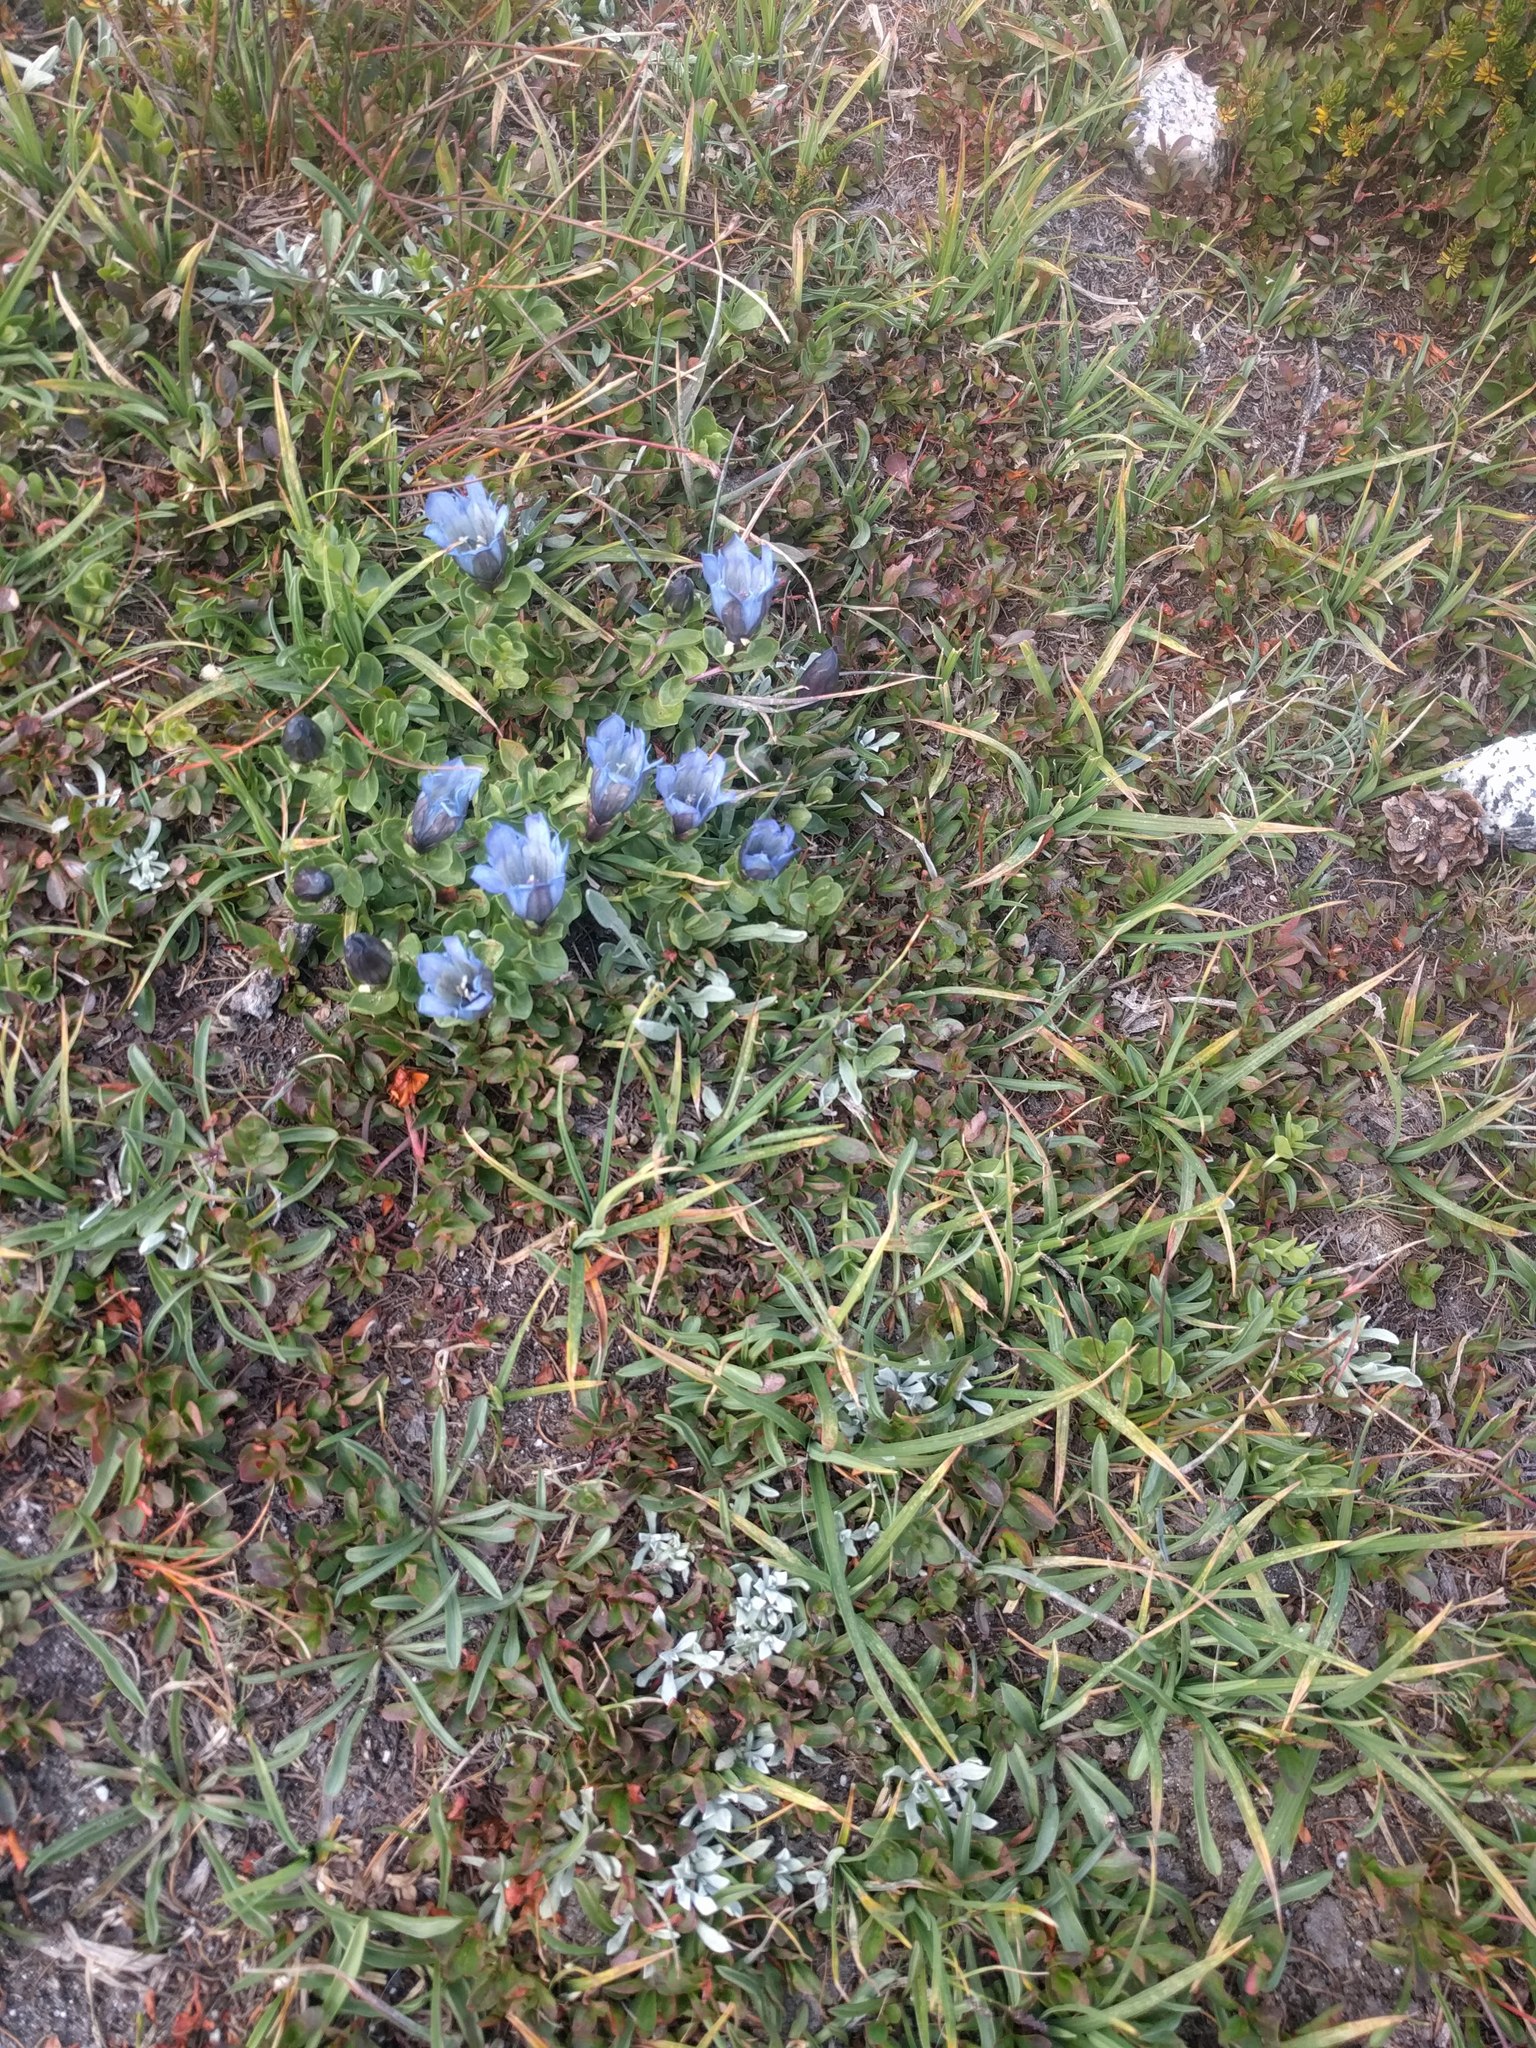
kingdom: Plantae
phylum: Tracheophyta
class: Magnoliopsida
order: Gentianales
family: Gentianaceae
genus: Gentiana
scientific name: Gentiana calycosa
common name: Rainier pleated gentian
